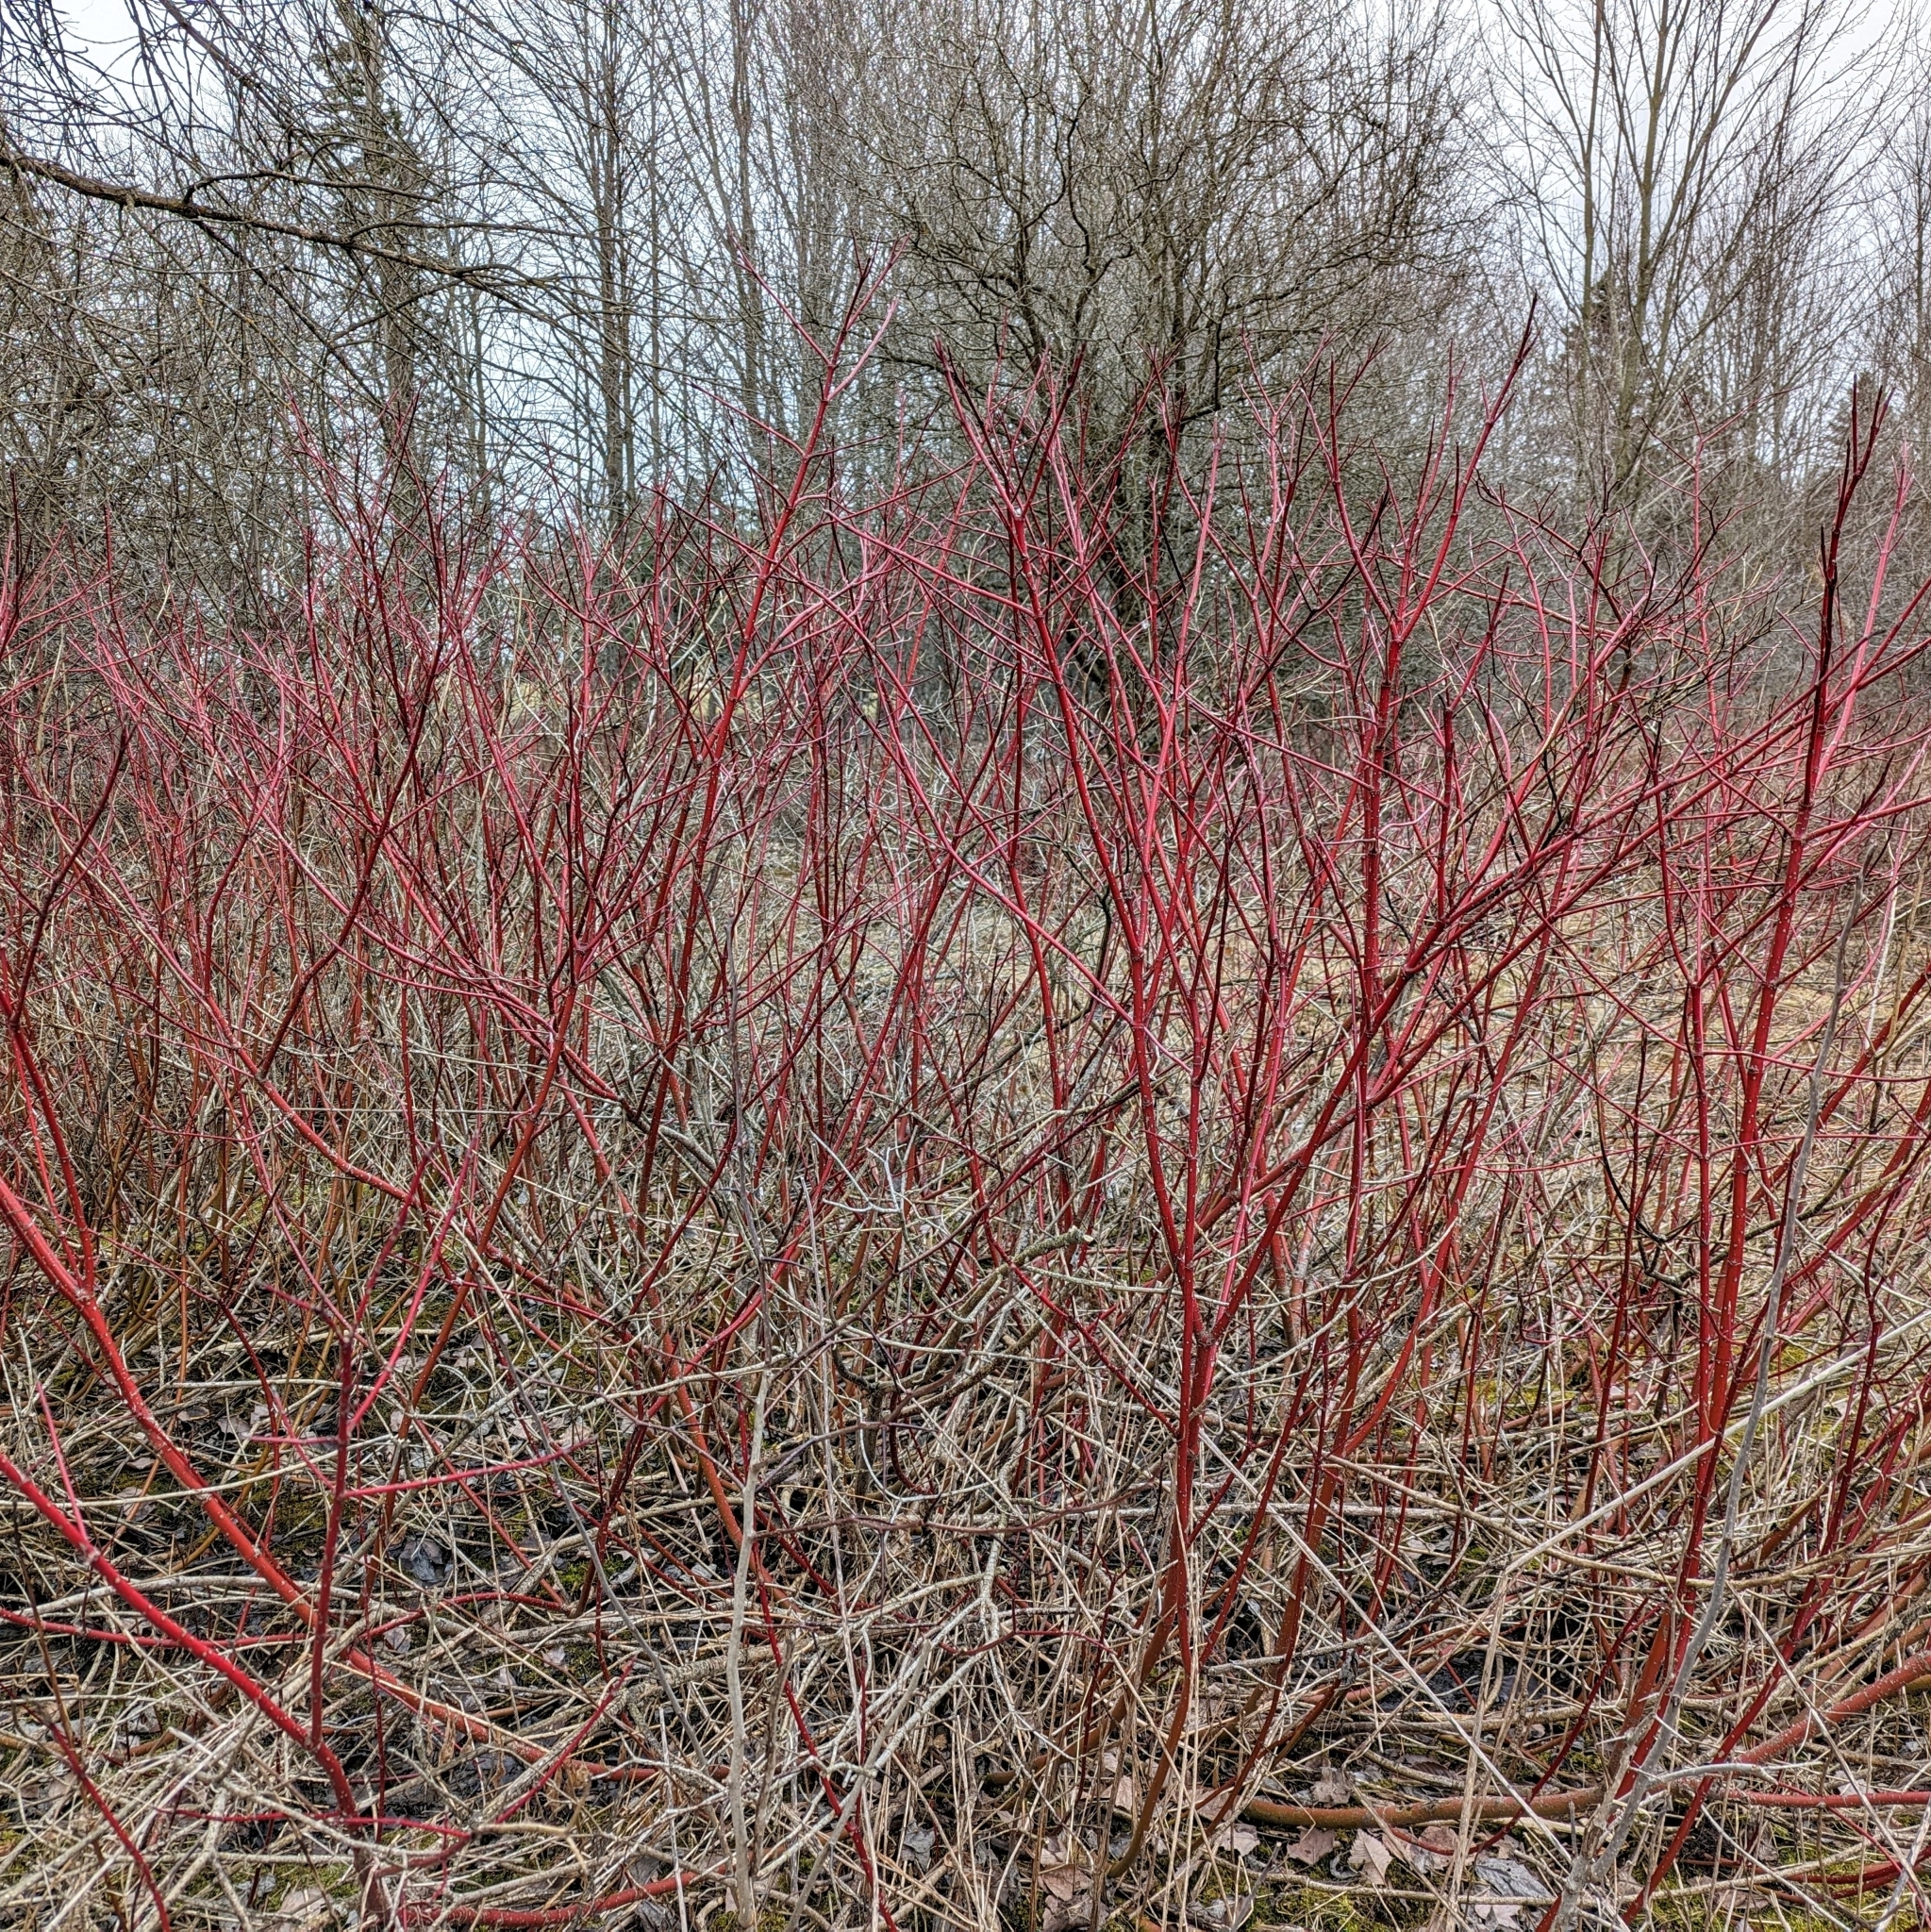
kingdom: Plantae
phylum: Tracheophyta
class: Magnoliopsida
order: Cornales
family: Cornaceae
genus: Cornus
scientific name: Cornus sericea
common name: Red-osier dogwood
